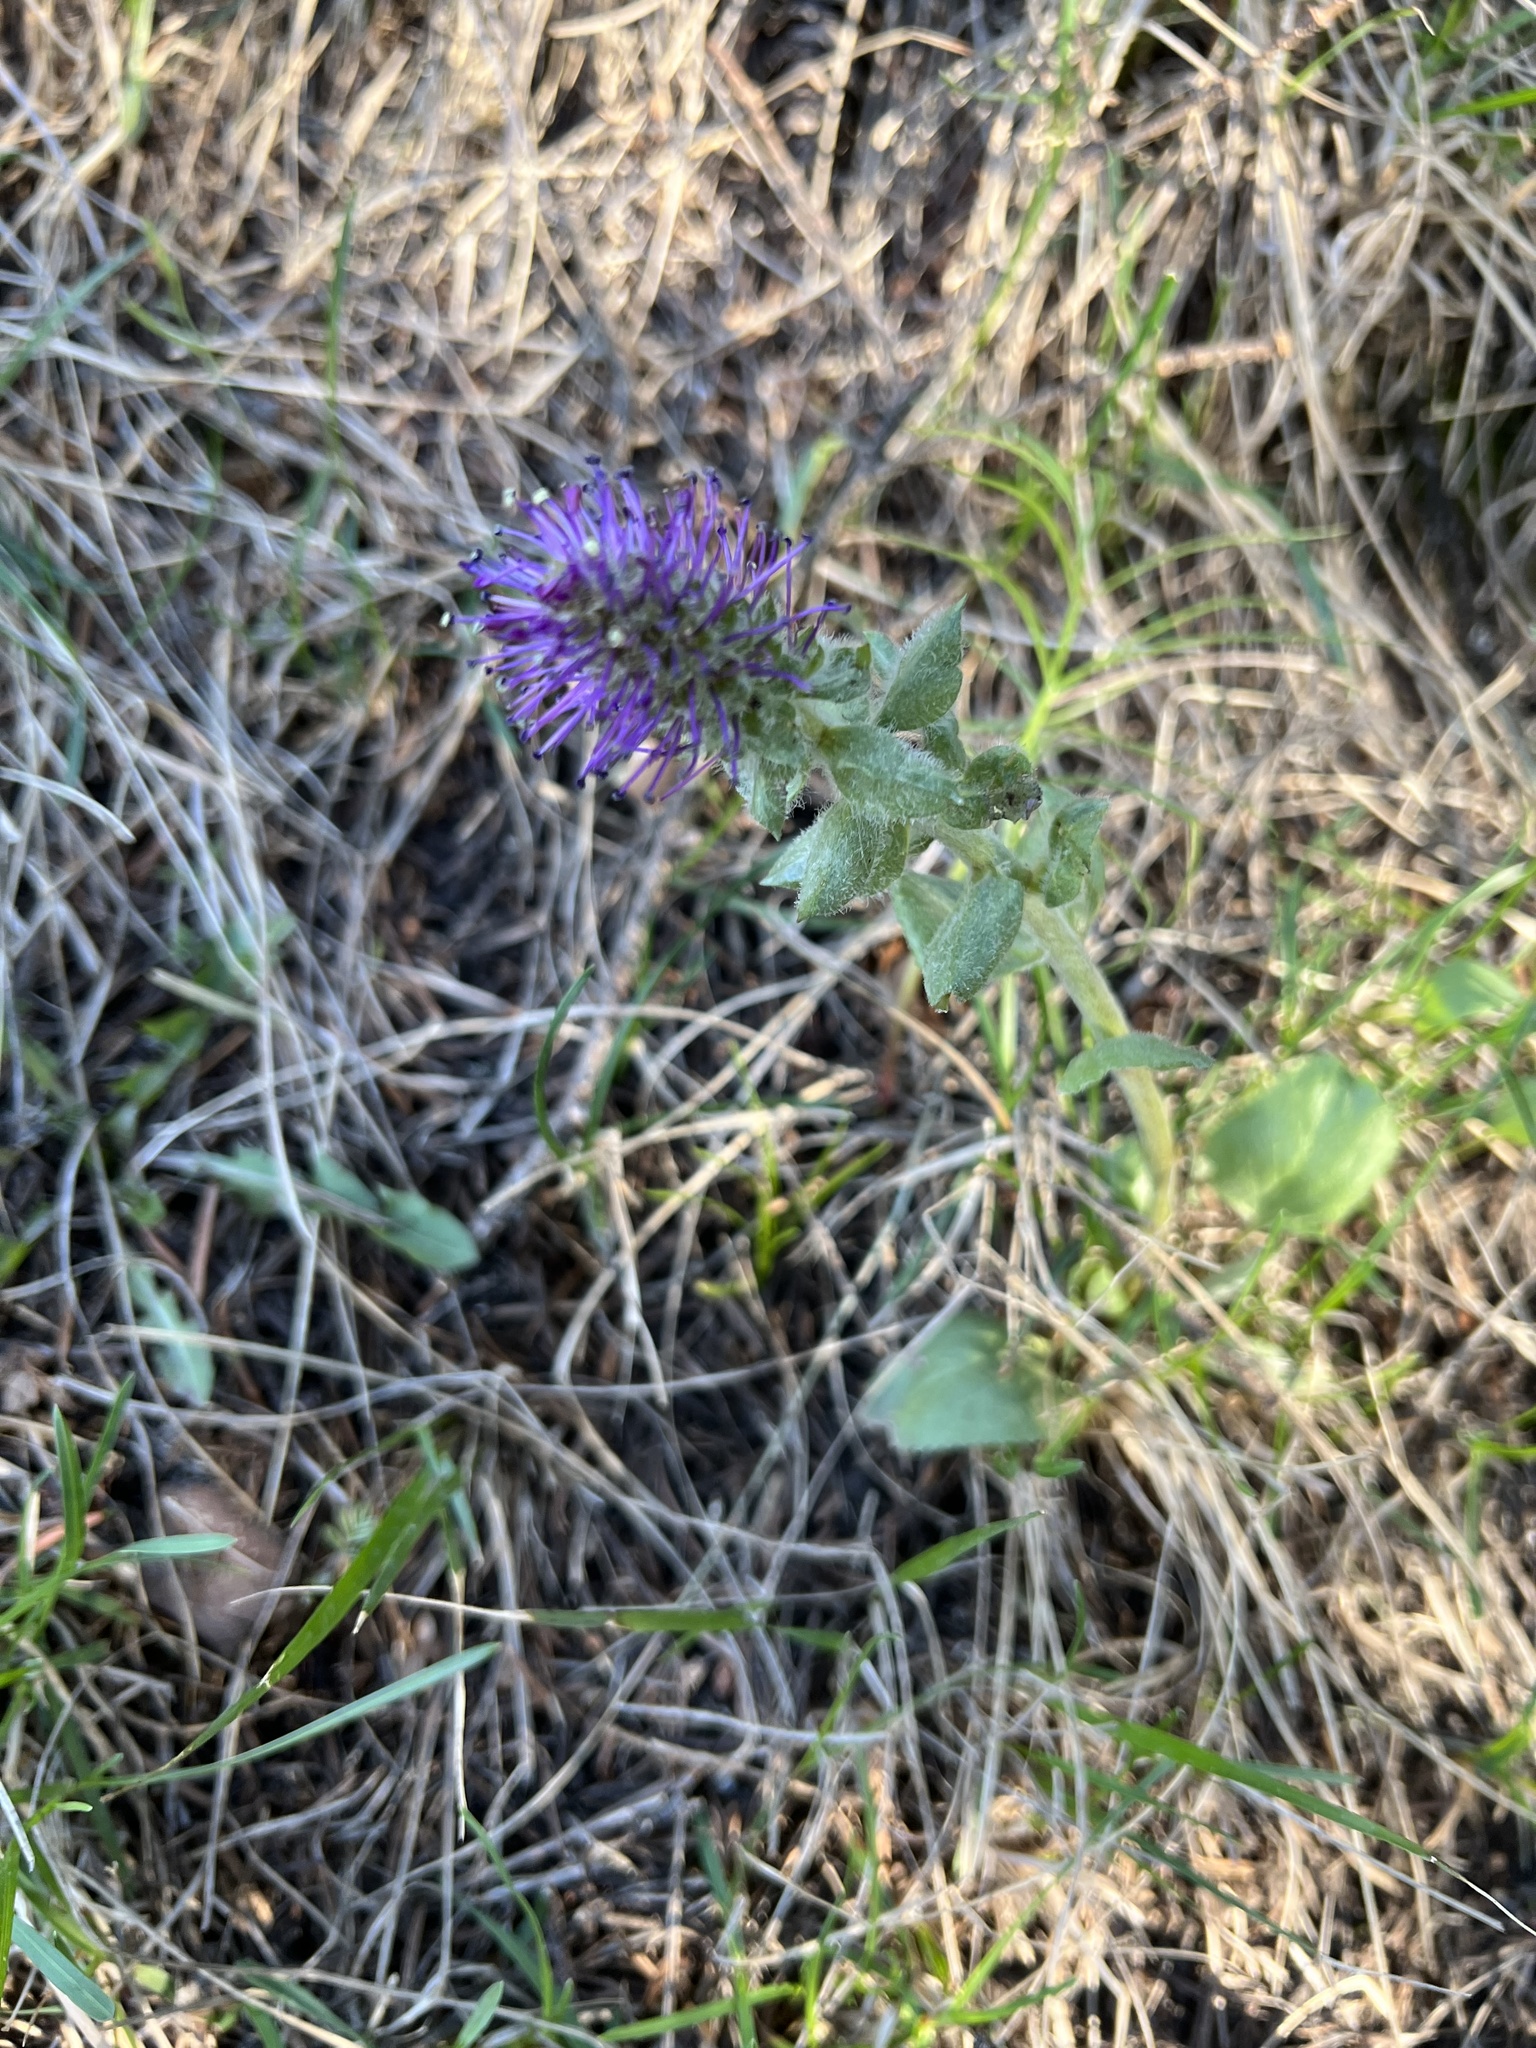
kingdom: Plantae
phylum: Tracheophyta
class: Magnoliopsida
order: Lamiales
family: Plantaginaceae
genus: Synthyris
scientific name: Synthyris wyomingensis
